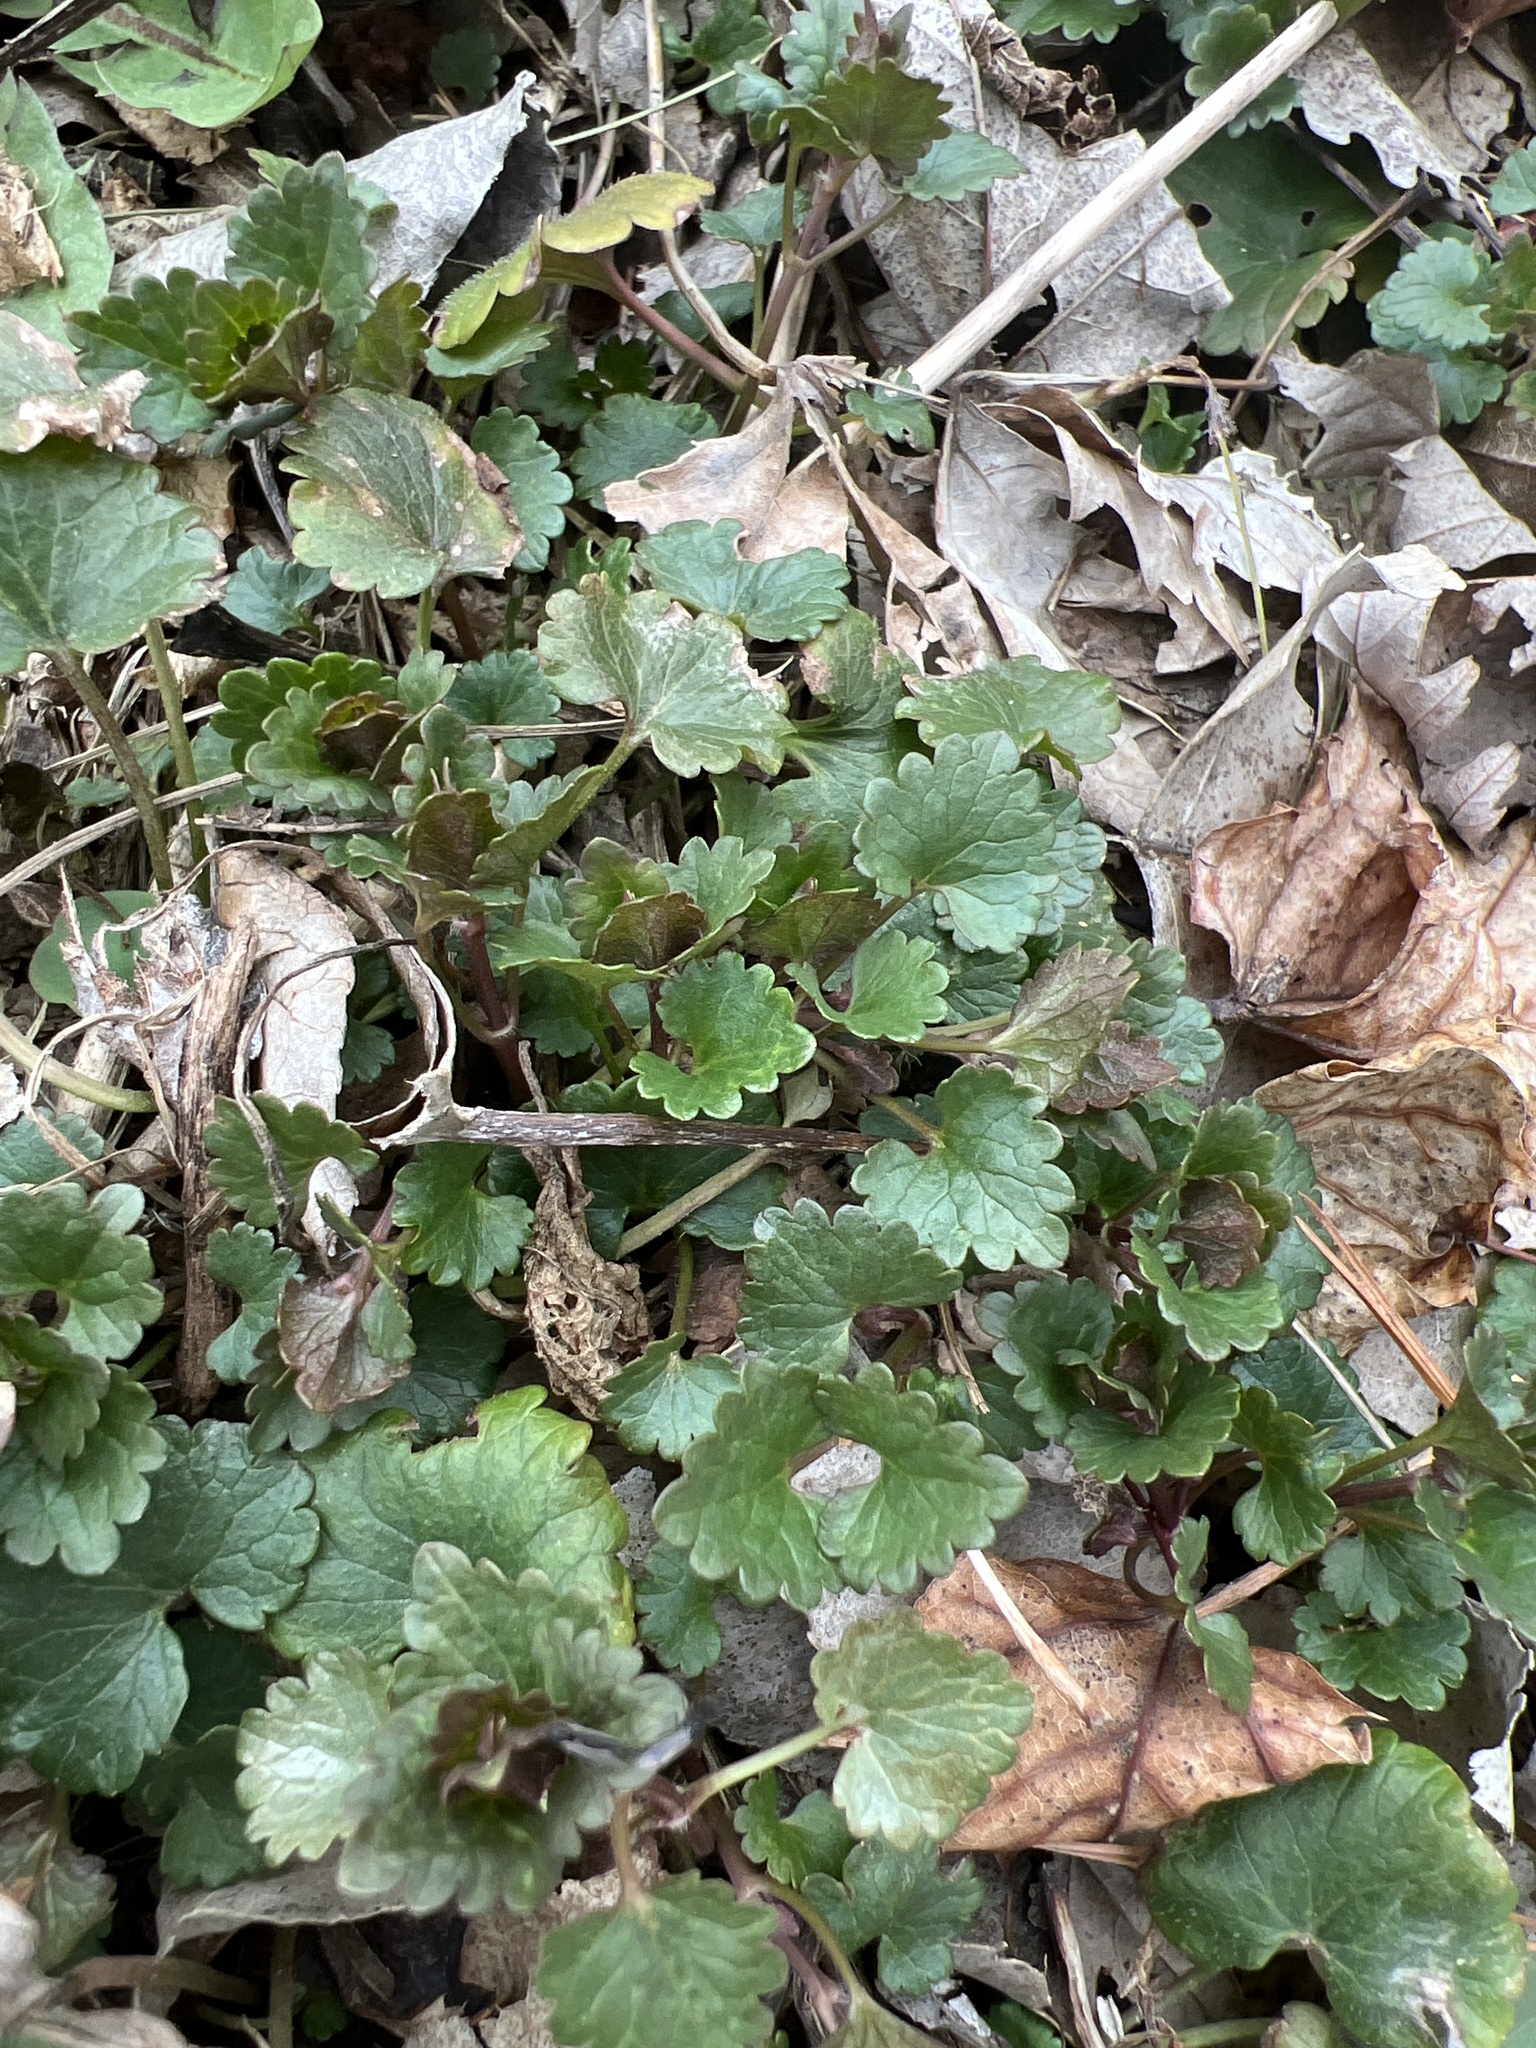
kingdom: Plantae
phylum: Tracheophyta
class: Magnoliopsida
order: Lamiales
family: Lamiaceae
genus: Glechoma
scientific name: Glechoma hederacea
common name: Ground ivy
